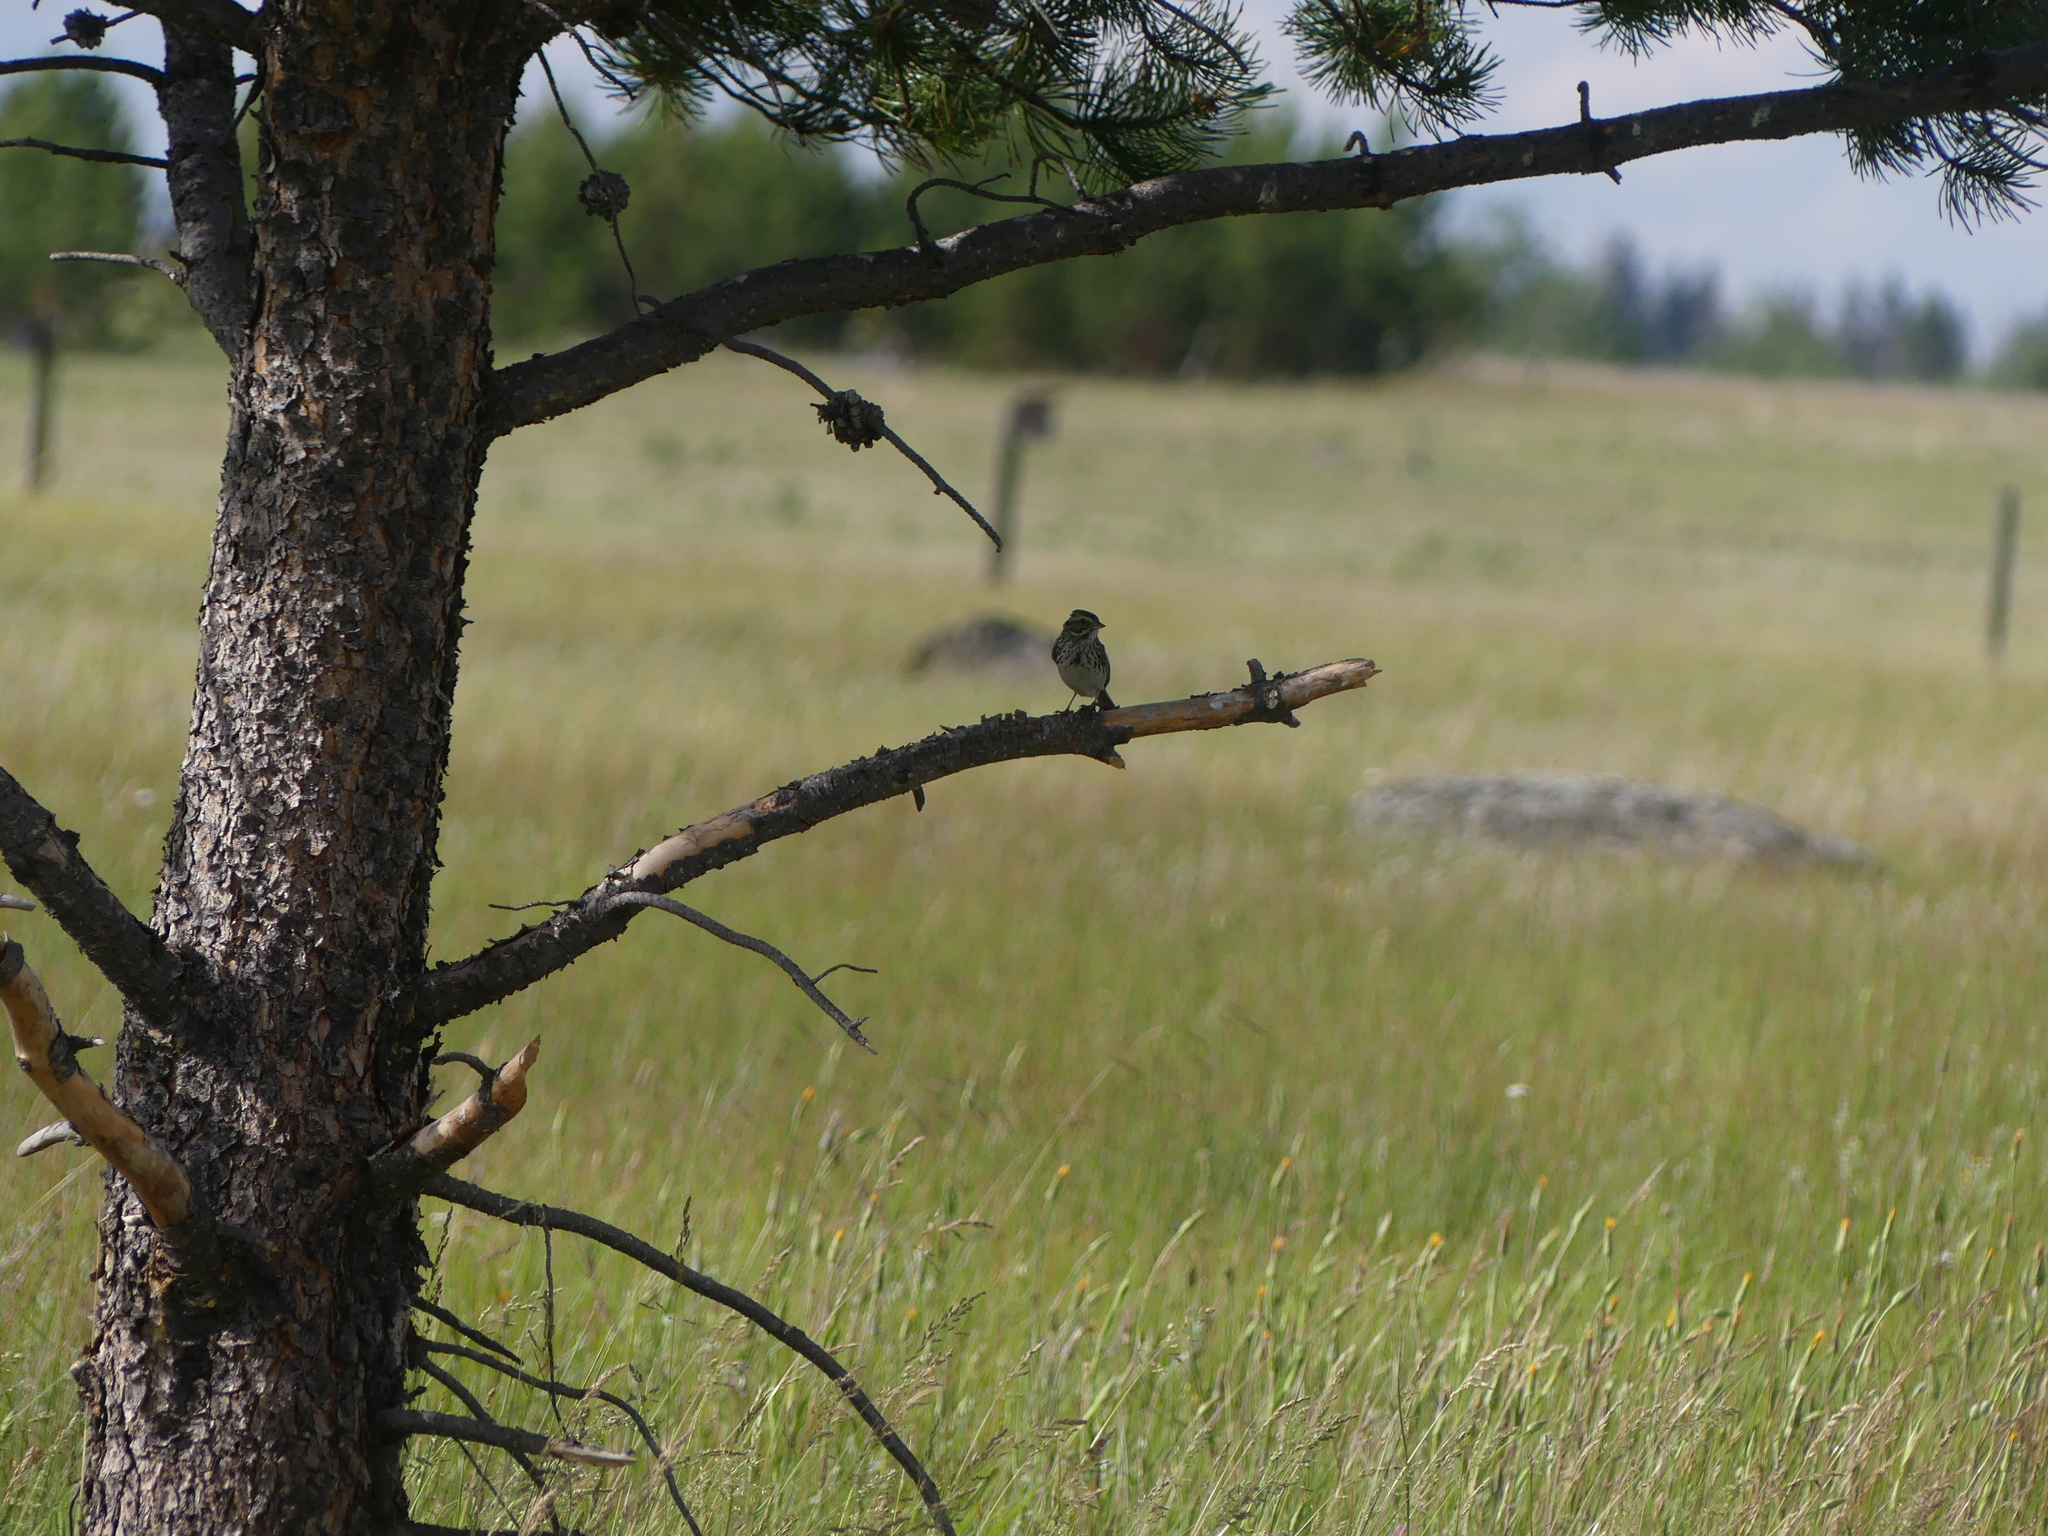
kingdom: Animalia
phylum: Chordata
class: Aves
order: Passeriformes
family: Passerellidae
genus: Passerculus
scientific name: Passerculus sandwichensis
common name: Savannah sparrow
